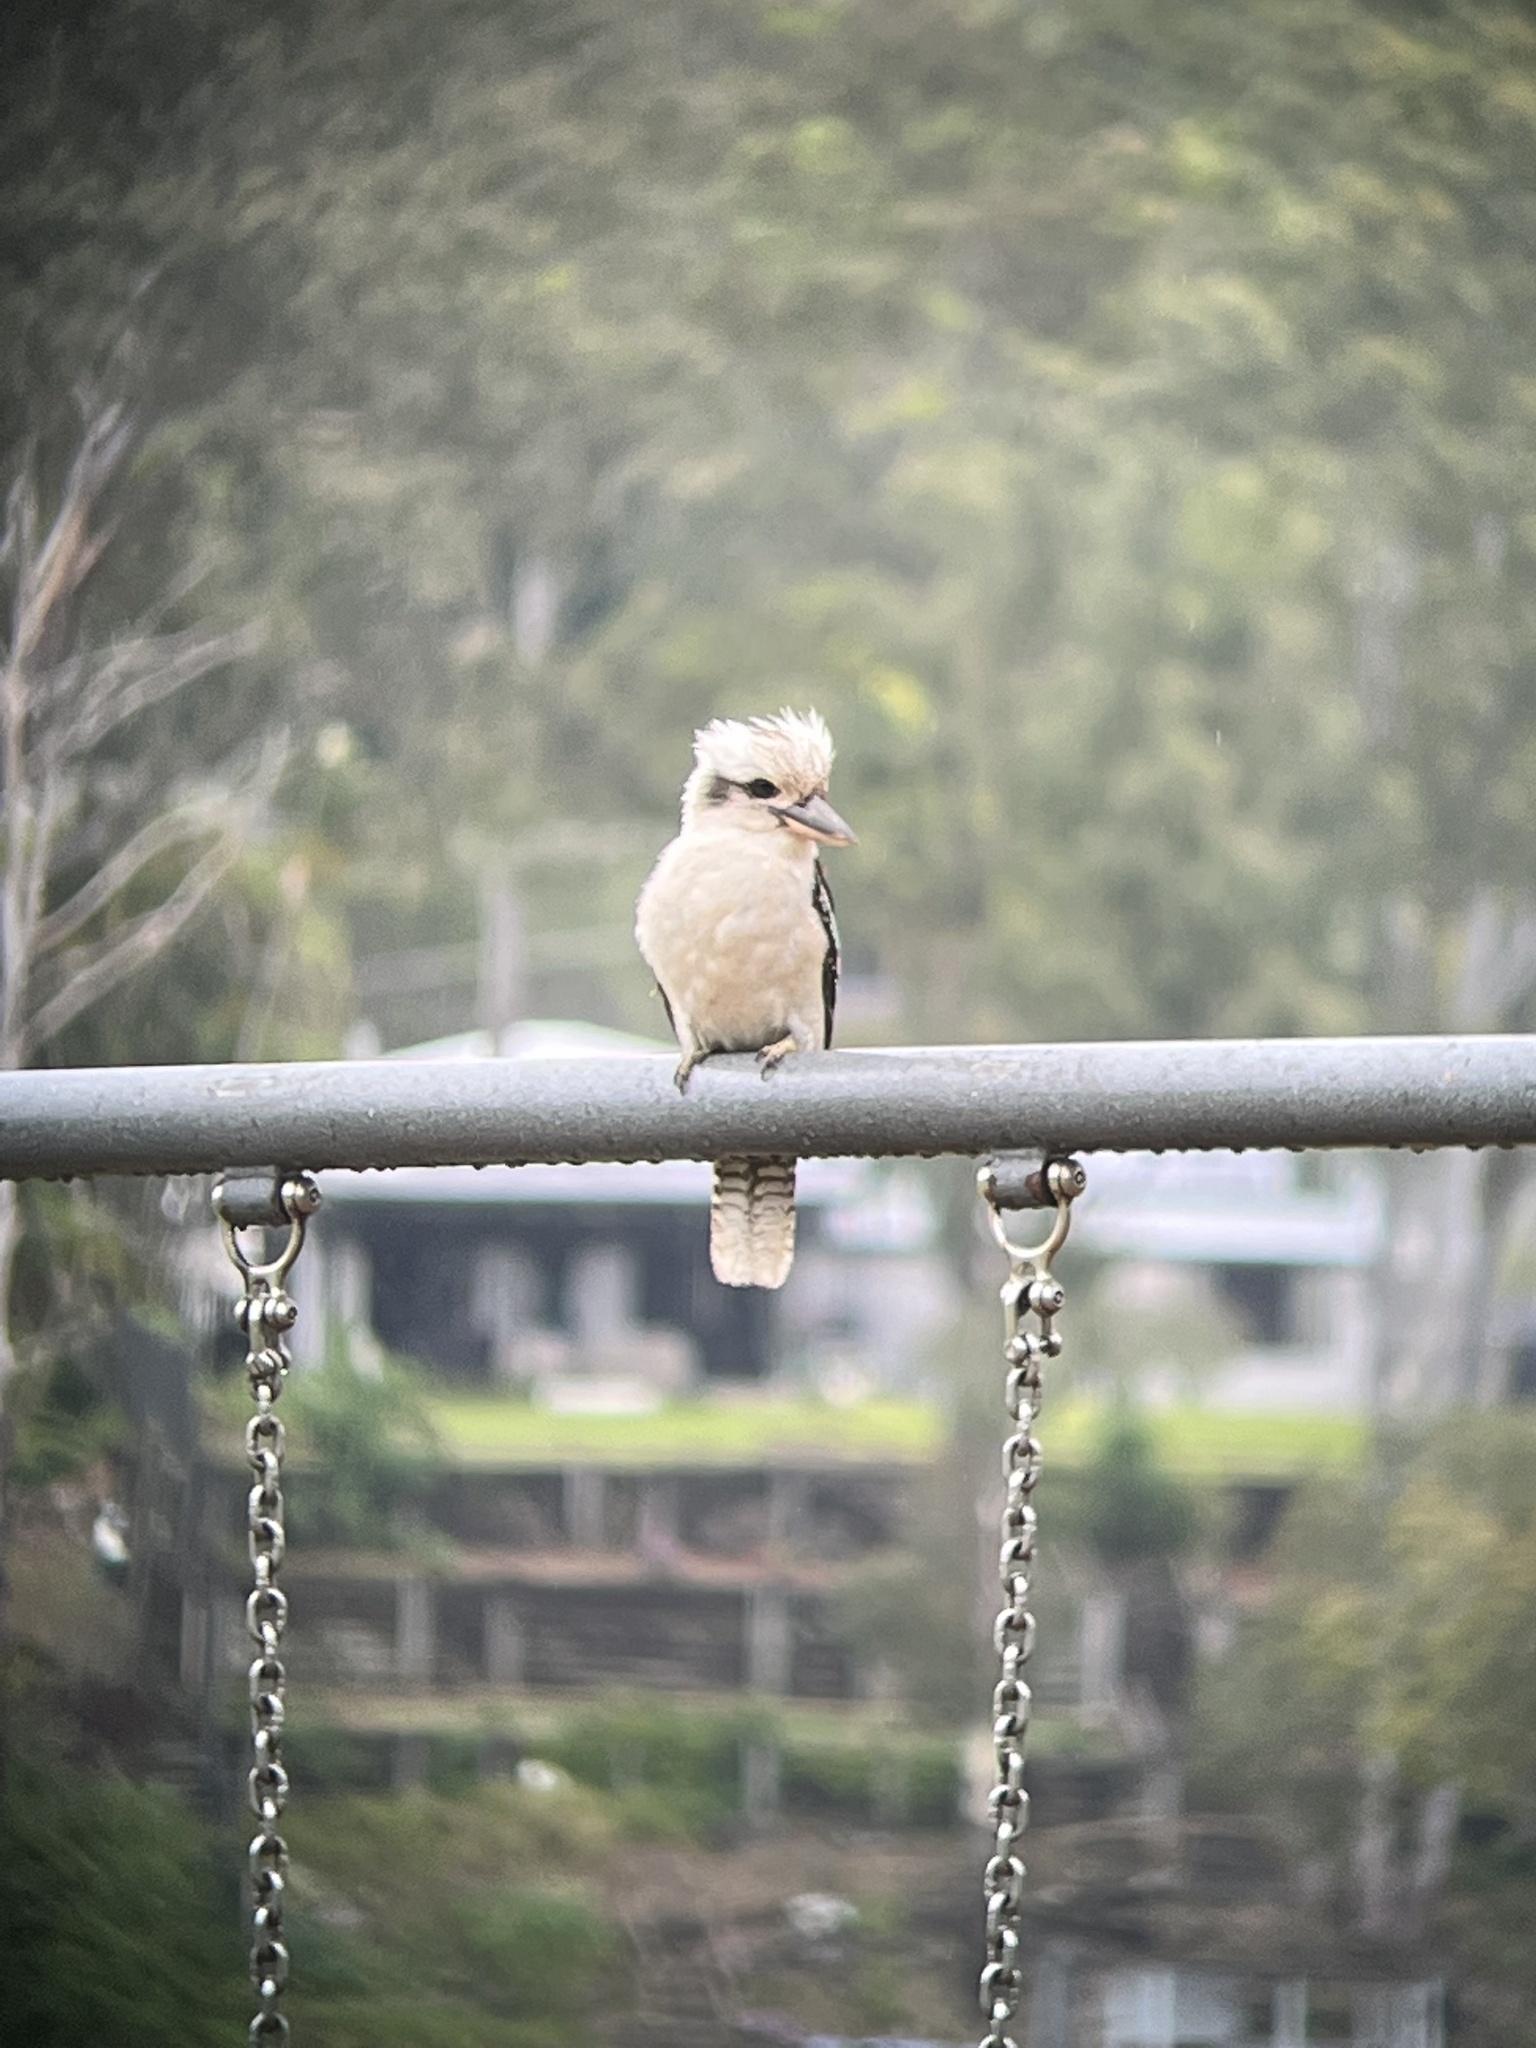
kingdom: Animalia
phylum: Chordata
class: Aves
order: Coraciiformes
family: Alcedinidae
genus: Dacelo
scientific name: Dacelo novaeguineae
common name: Laughing kookaburra
